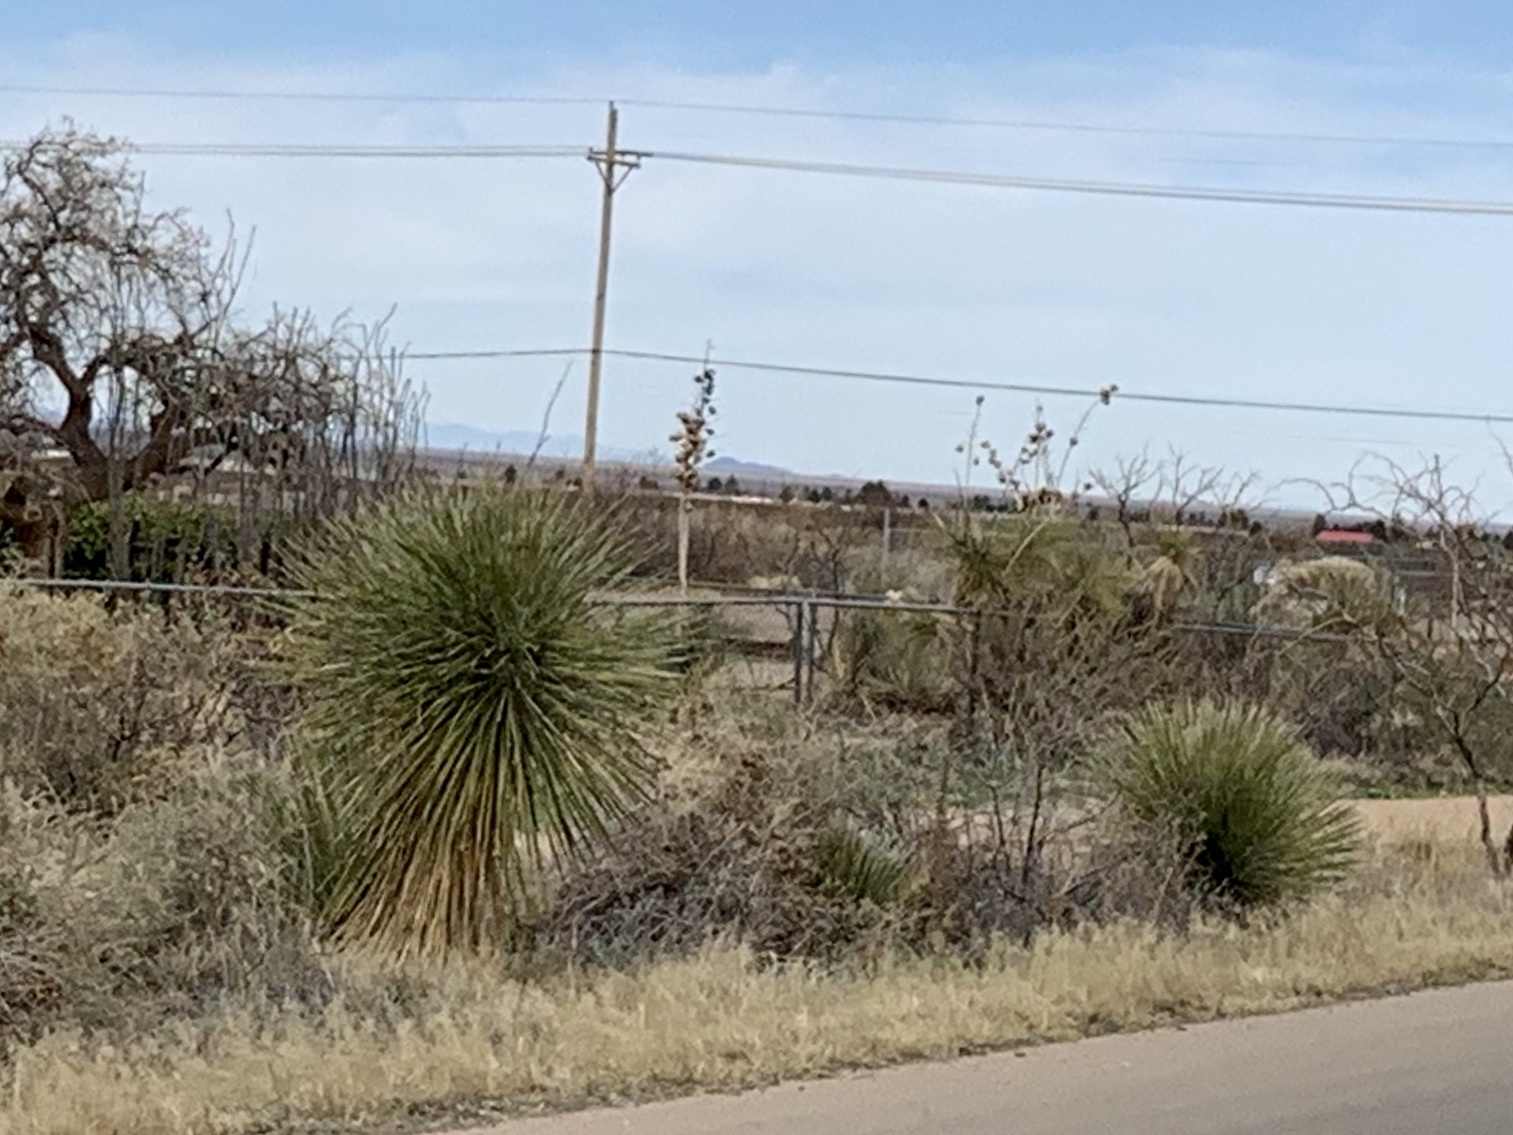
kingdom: Plantae
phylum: Tracheophyta
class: Liliopsida
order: Asparagales
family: Asparagaceae
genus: Yucca
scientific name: Yucca elata
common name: Palmella
